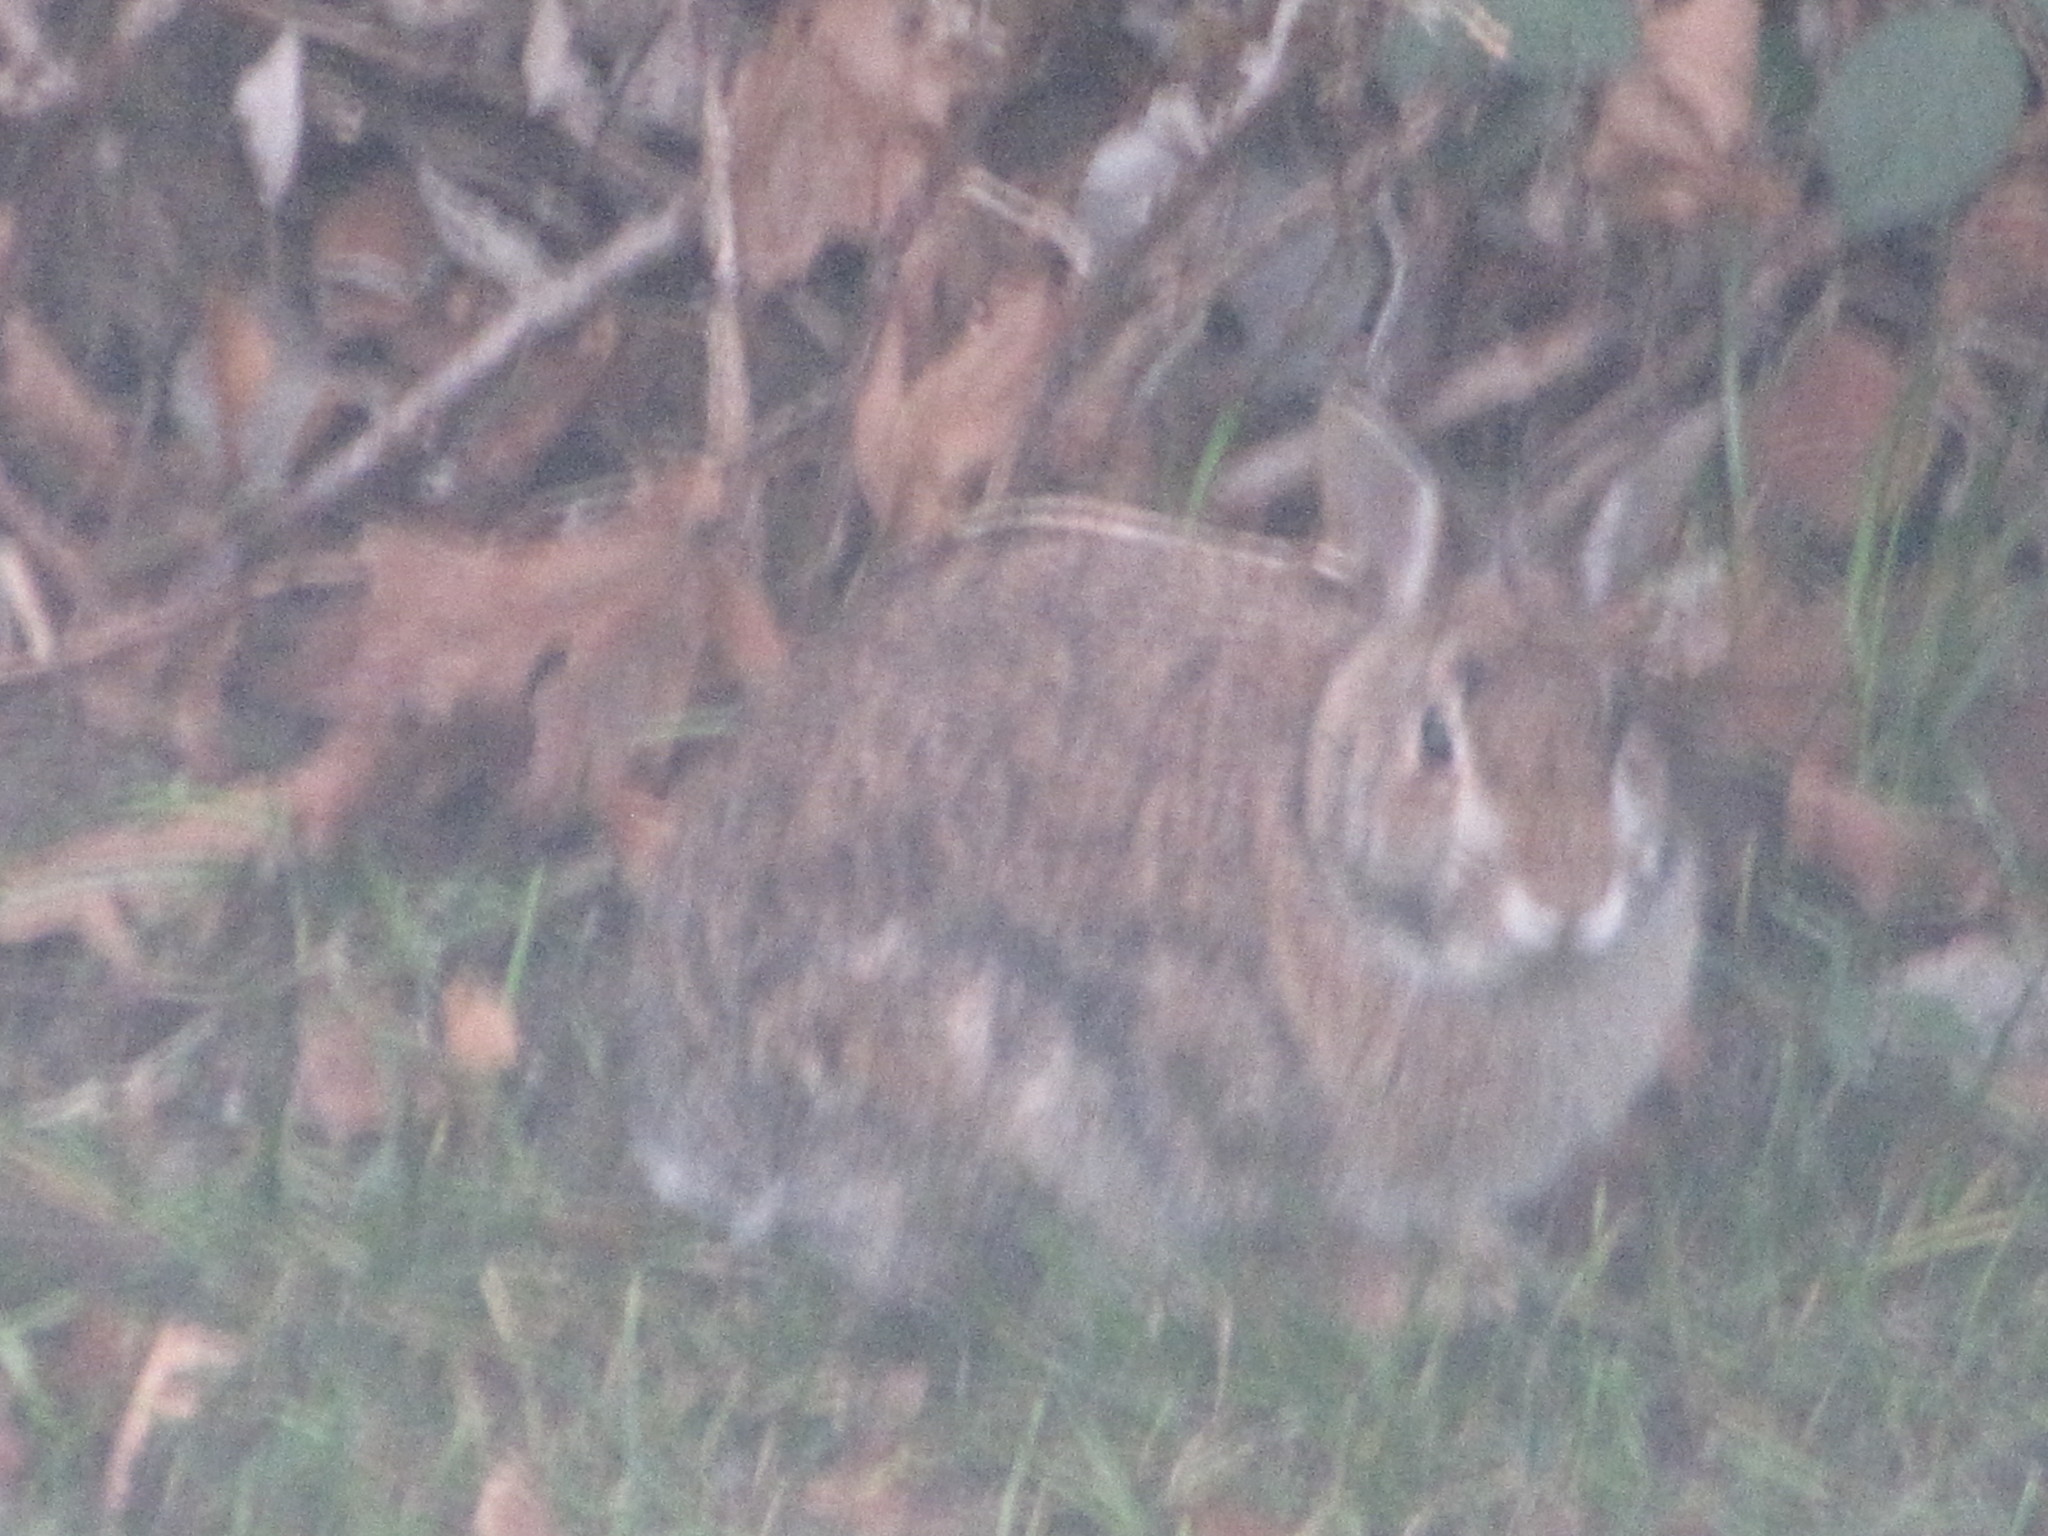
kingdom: Animalia
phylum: Chordata
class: Mammalia
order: Lagomorpha
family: Leporidae
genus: Sylvilagus
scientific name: Sylvilagus floridanus
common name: Eastern cottontail
